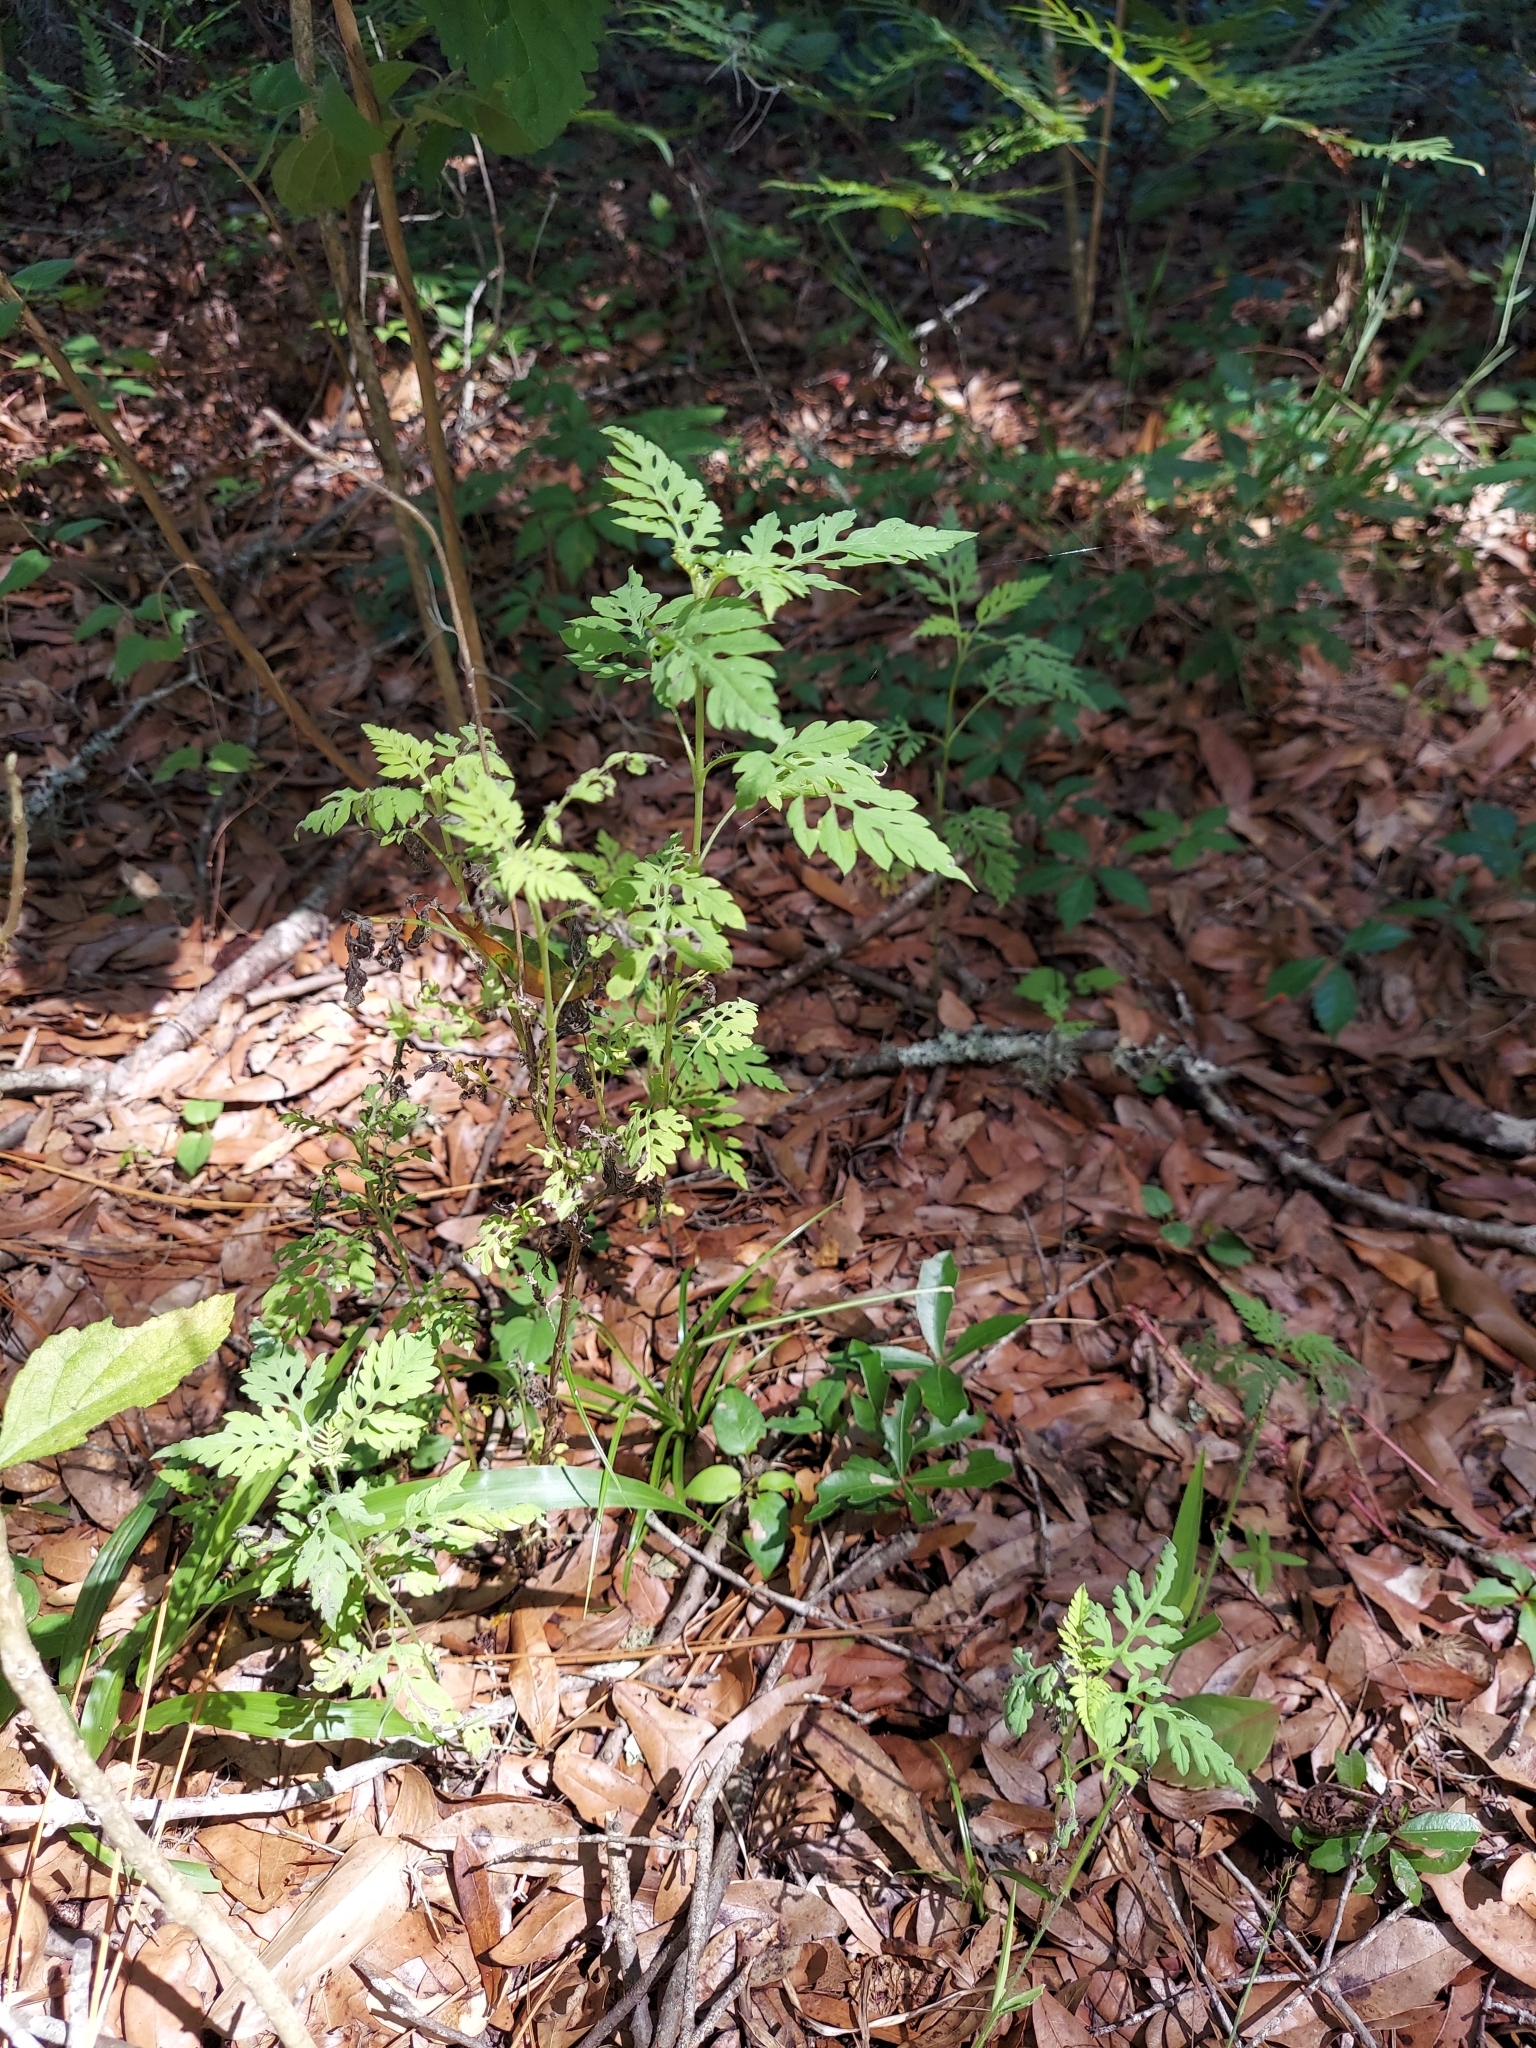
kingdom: Plantae
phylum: Tracheophyta
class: Magnoliopsida
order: Asterales
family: Asteraceae
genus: Ambrosia
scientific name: Ambrosia artemisiifolia
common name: Annual ragweed
